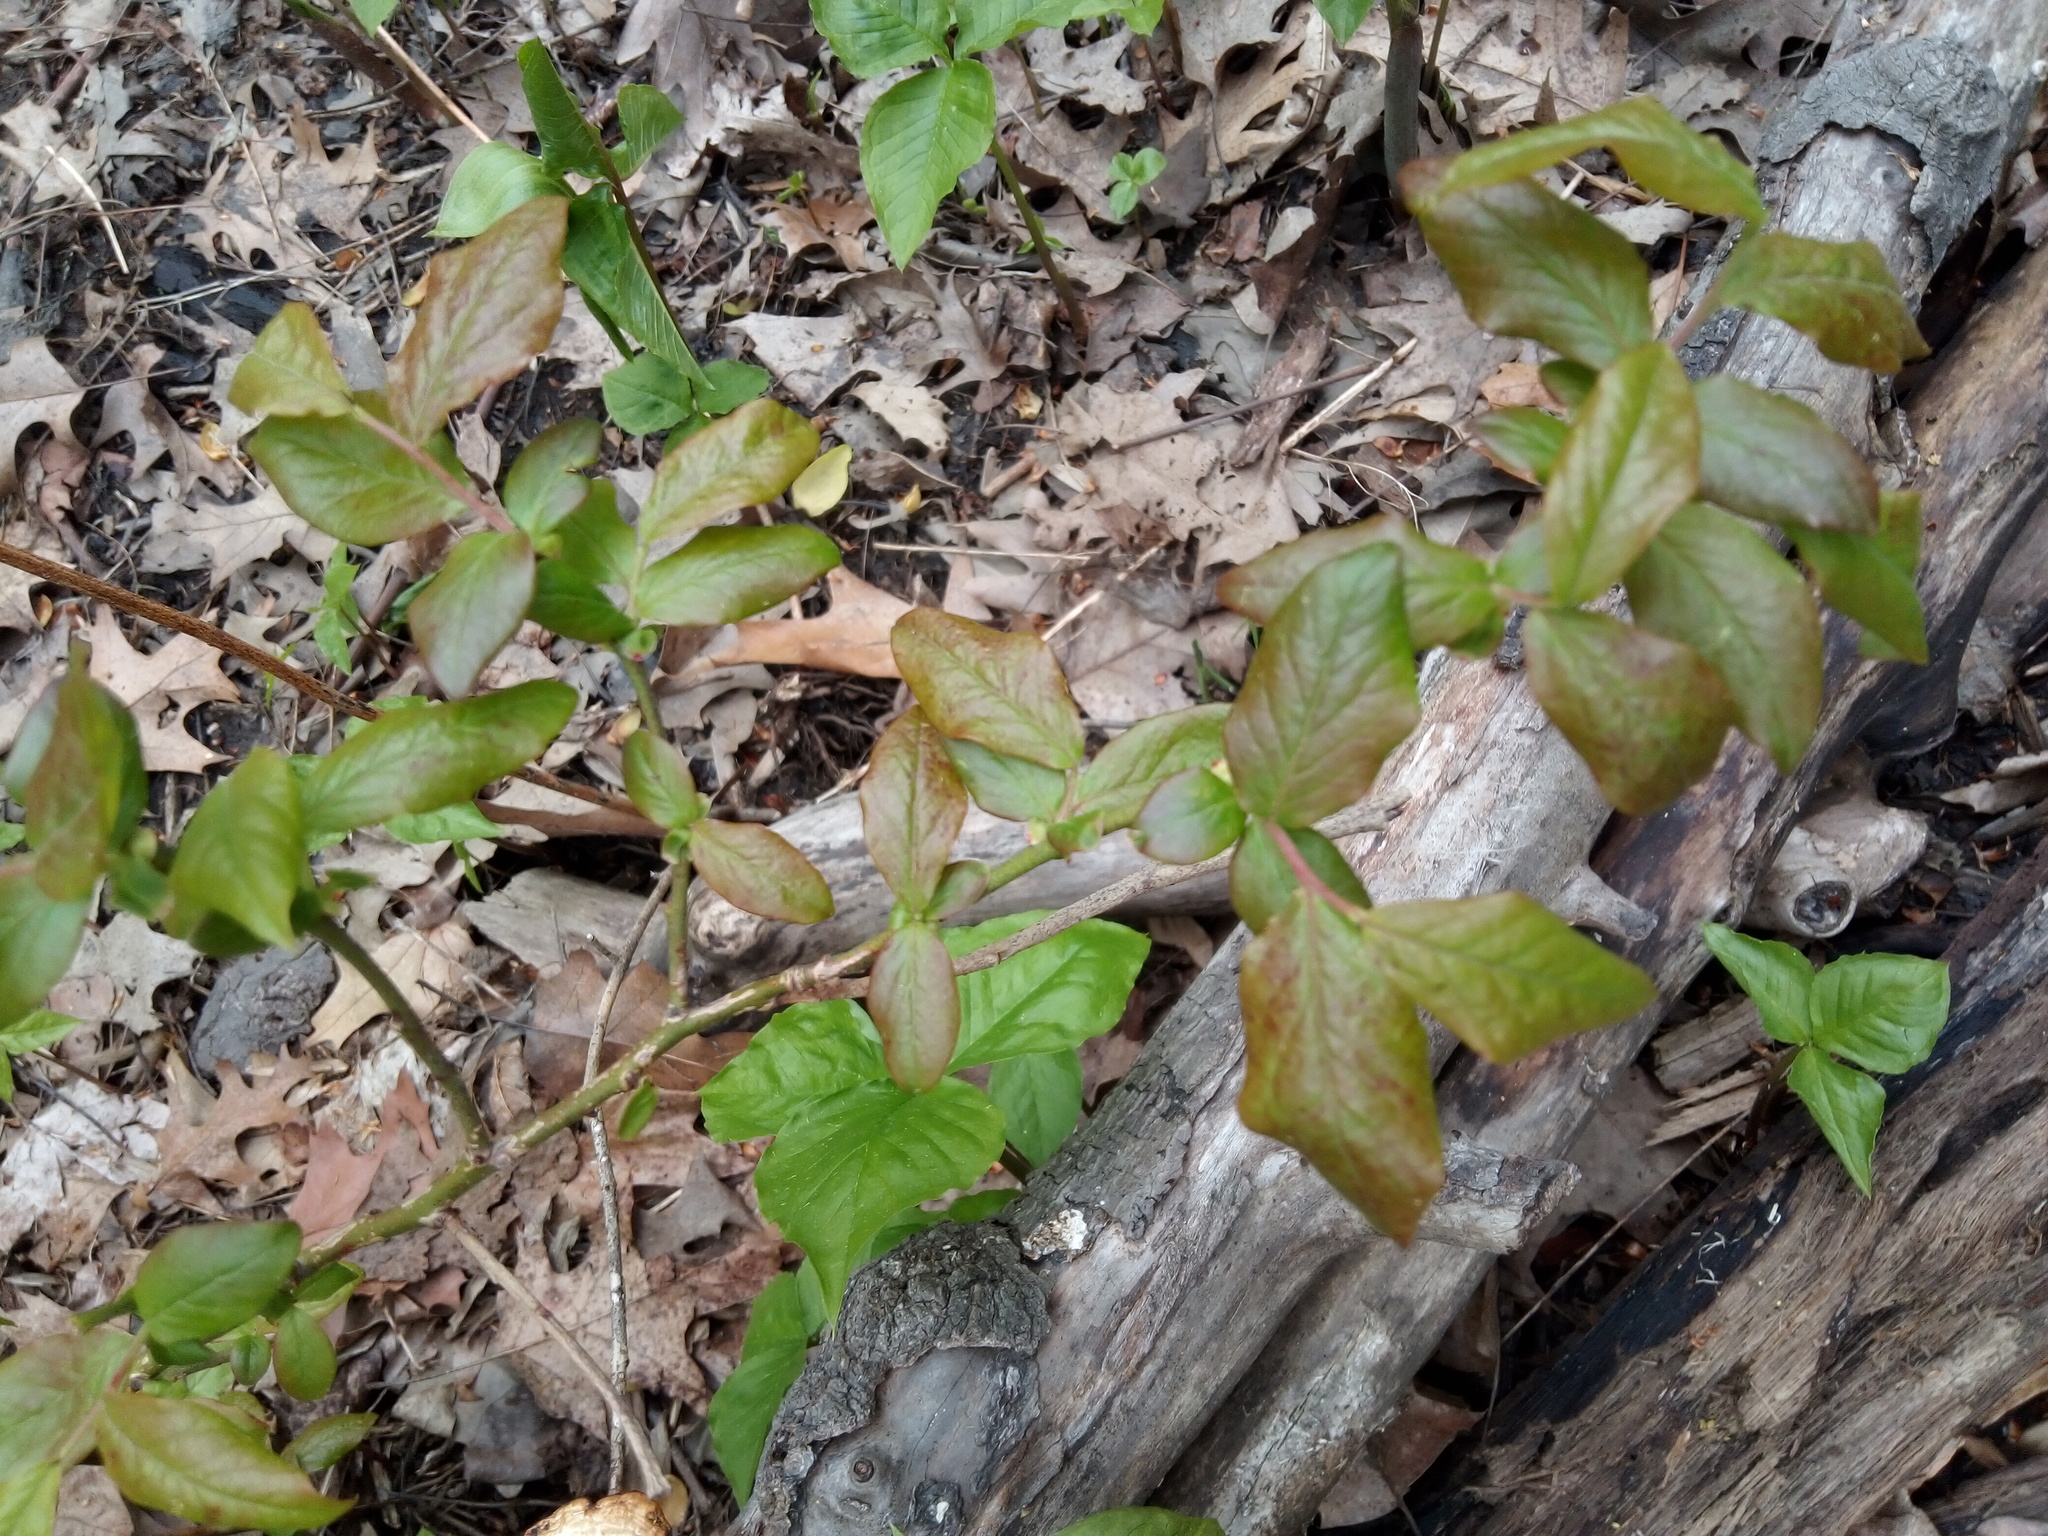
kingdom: Plantae
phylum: Tracheophyta
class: Magnoliopsida
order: Ericales
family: Ericaceae
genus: Vaccinium
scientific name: Vaccinium corymbosum
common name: Blueberry
